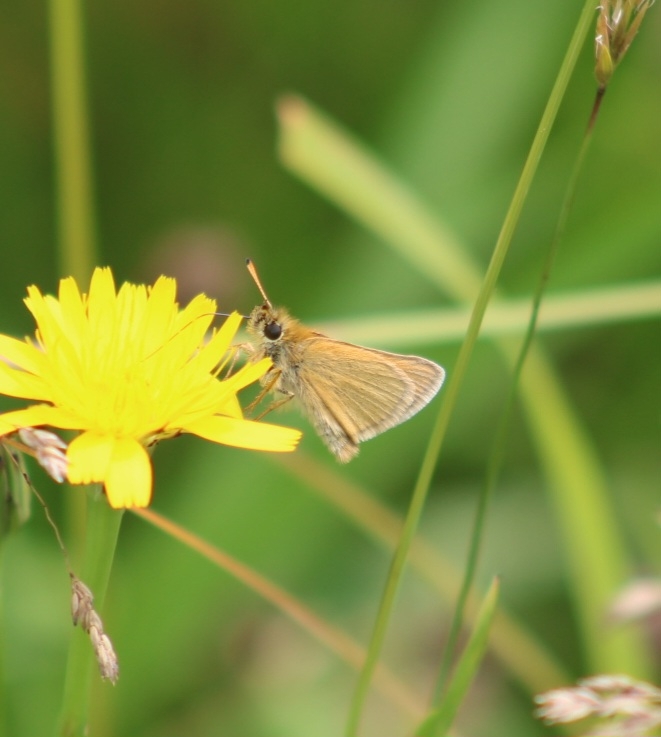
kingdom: Animalia
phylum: Arthropoda
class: Insecta
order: Lepidoptera
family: Hesperiidae
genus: Thymelicus
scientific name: Thymelicus lineola
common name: Essex skipper
